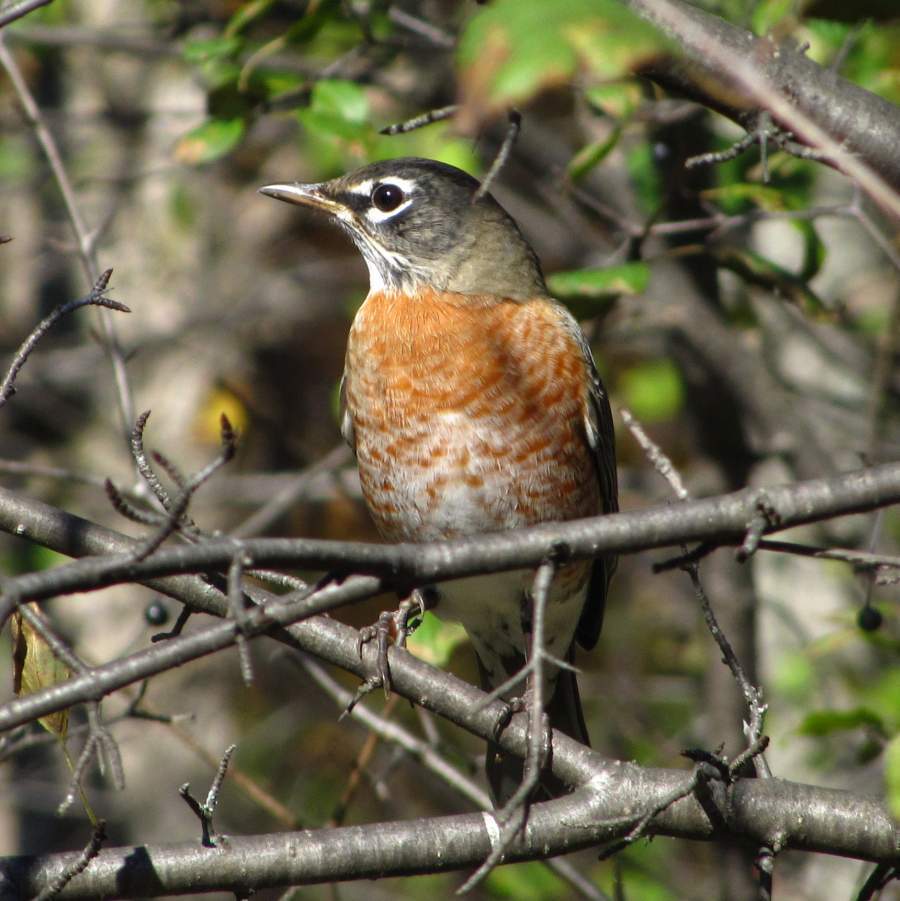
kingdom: Animalia
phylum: Chordata
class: Aves
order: Passeriformes
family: Turdidae
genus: Turdus
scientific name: Turdus migratorius
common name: American robin
